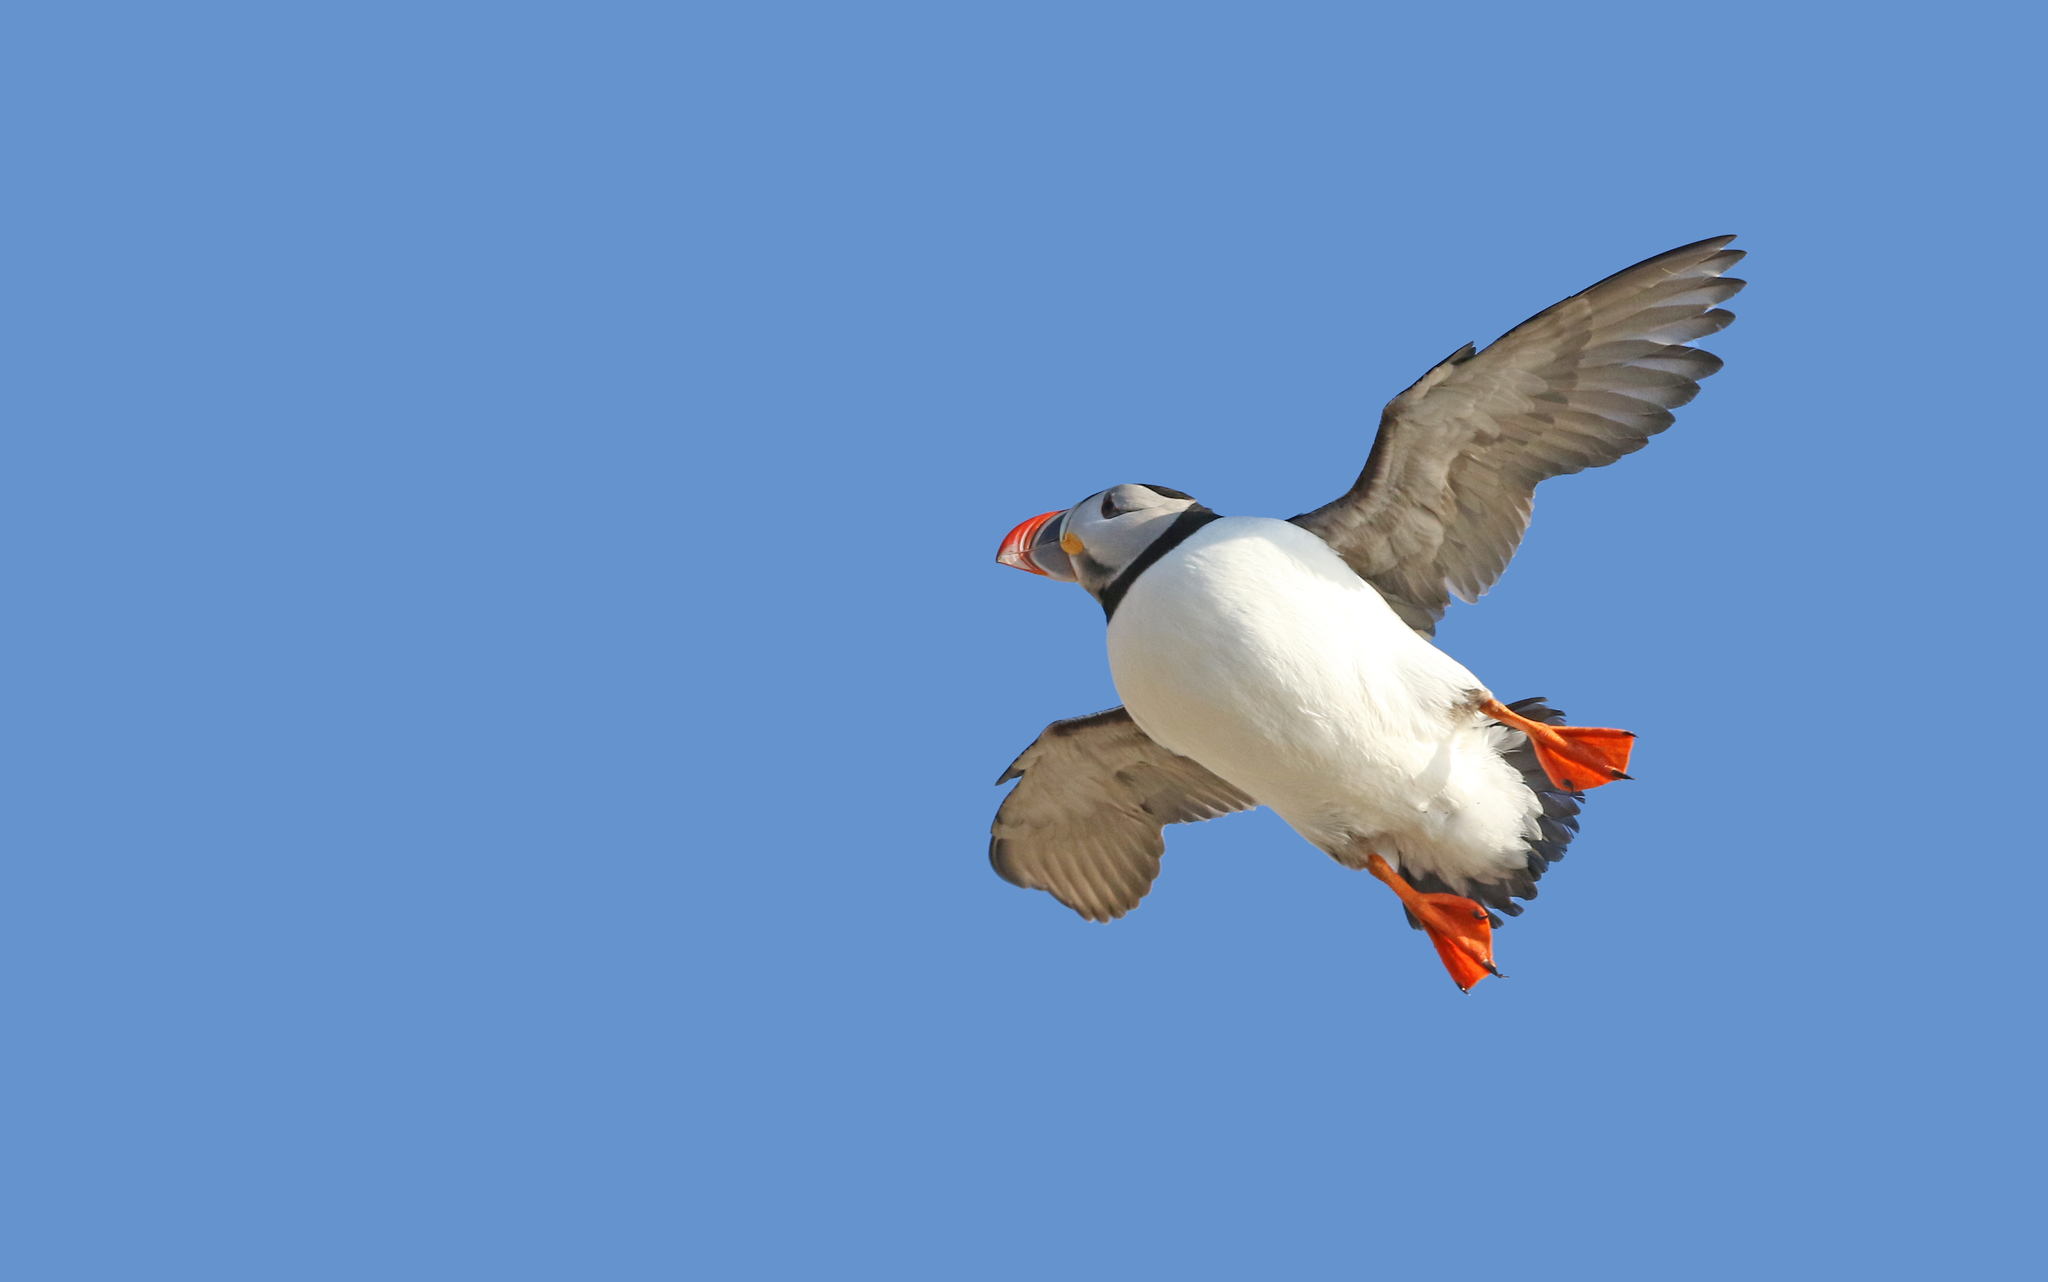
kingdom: Animalia
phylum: Chordata
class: Aves
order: Charadriiformes
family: Alcidae
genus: Fratercula
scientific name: Fratercula arctica
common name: Atlantic puffin
